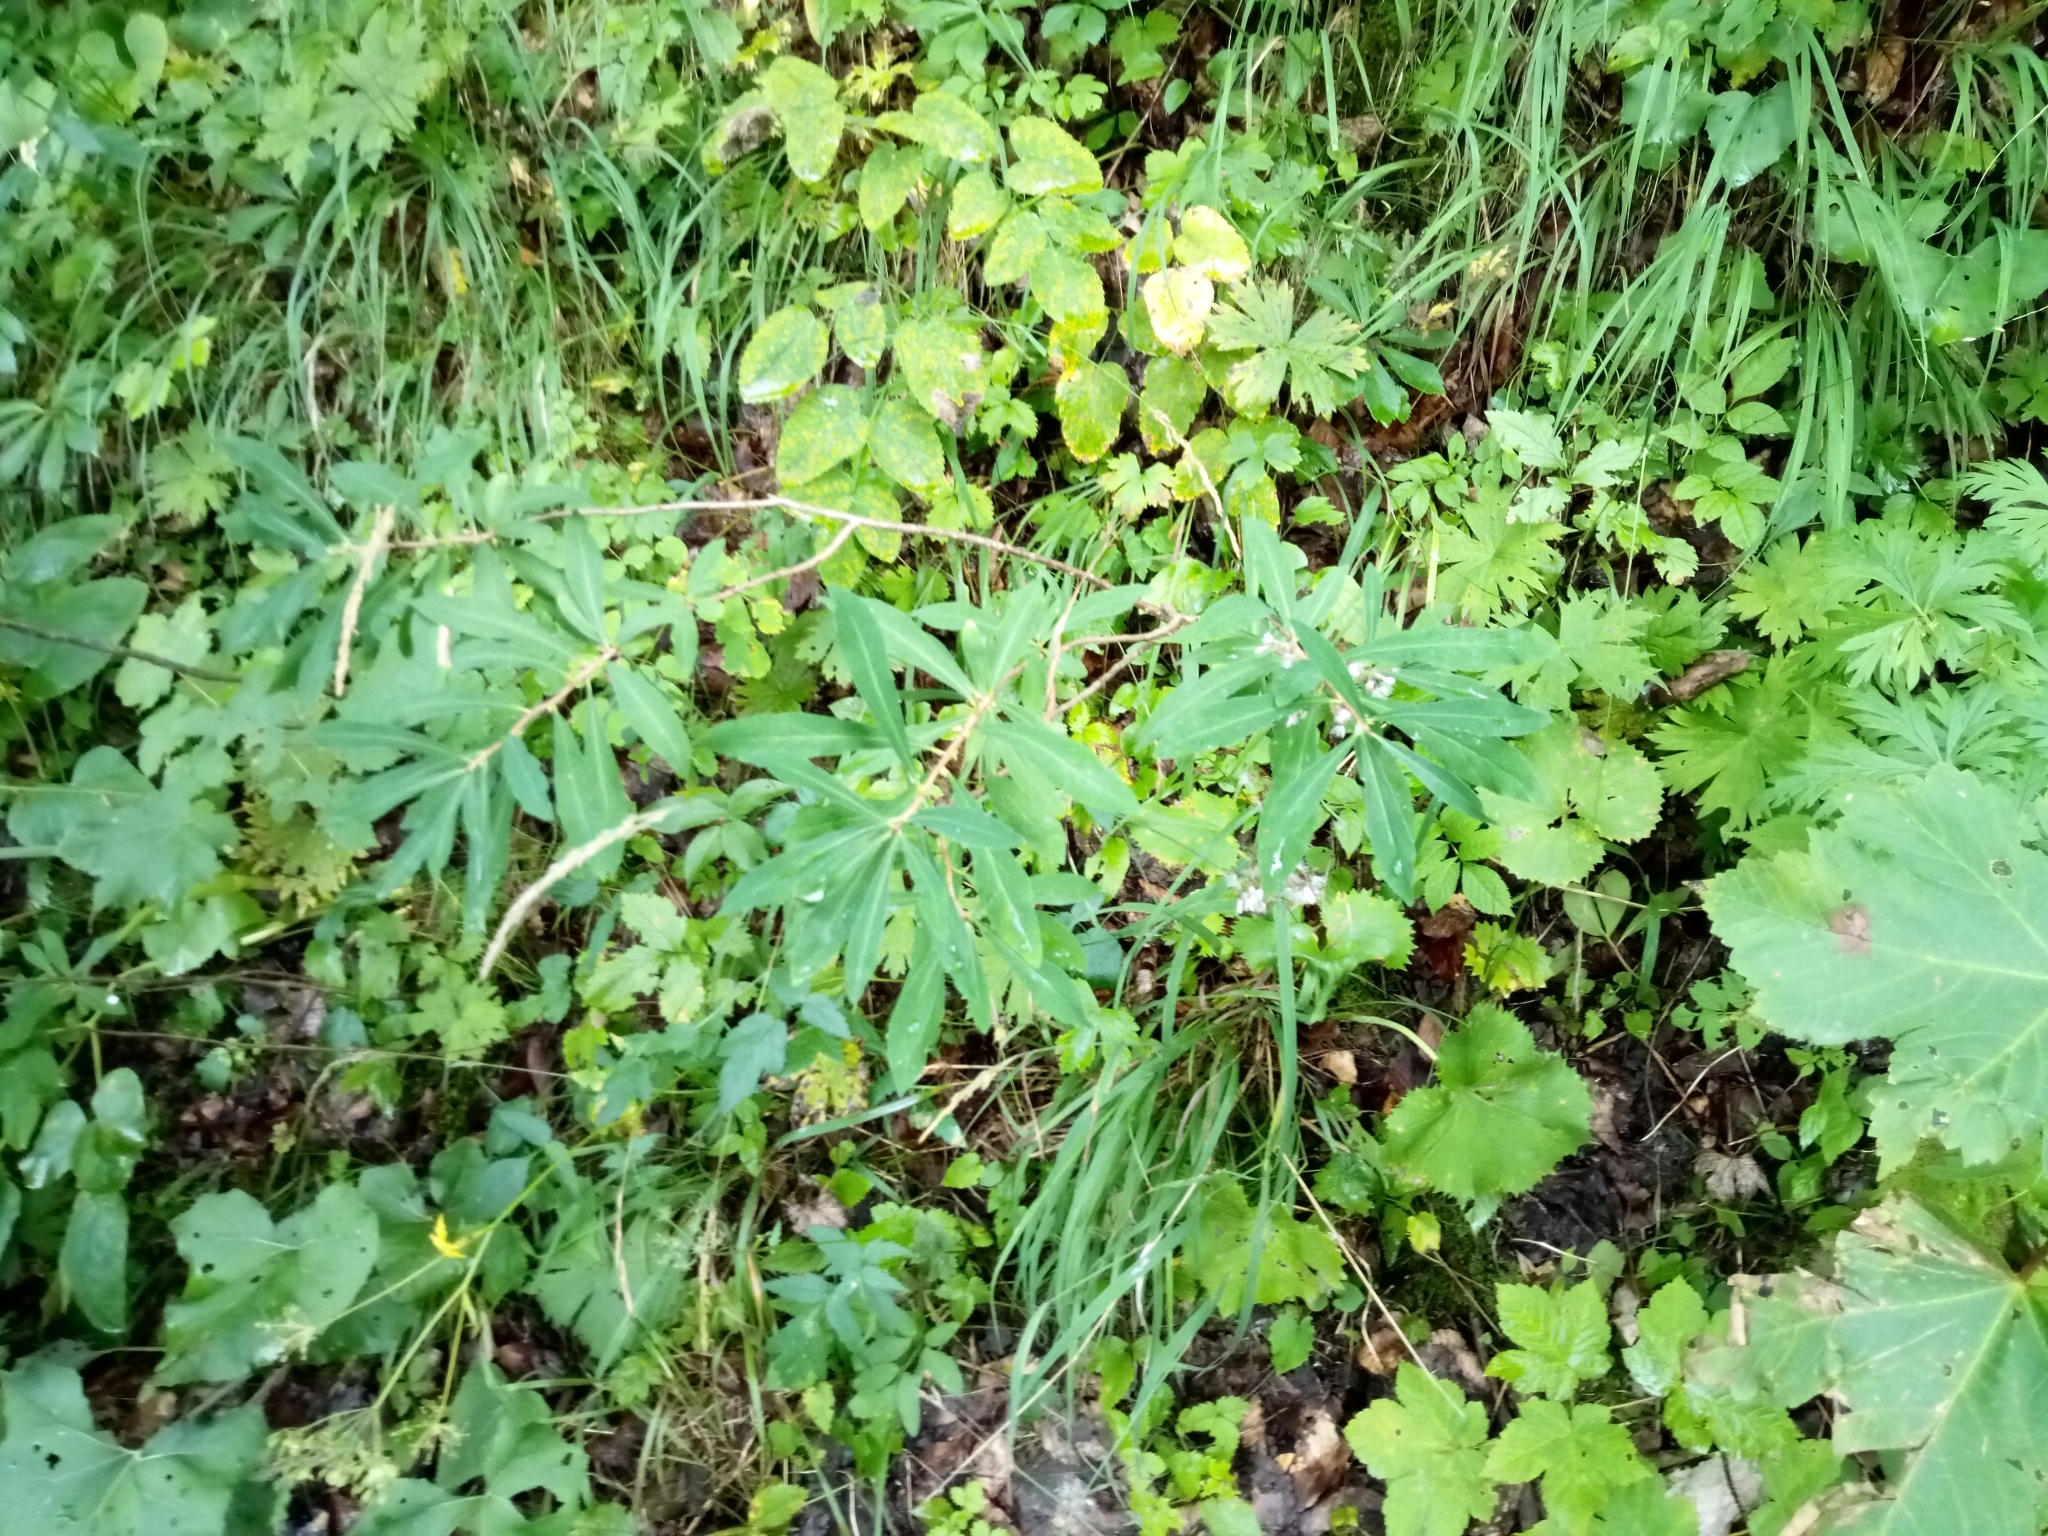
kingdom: Plantae
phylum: Tracheophyta
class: Magnoliopsida
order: Malvales
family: Thymelaeaceae
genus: Daphne
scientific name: Daphne mezereum
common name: Mezereon
